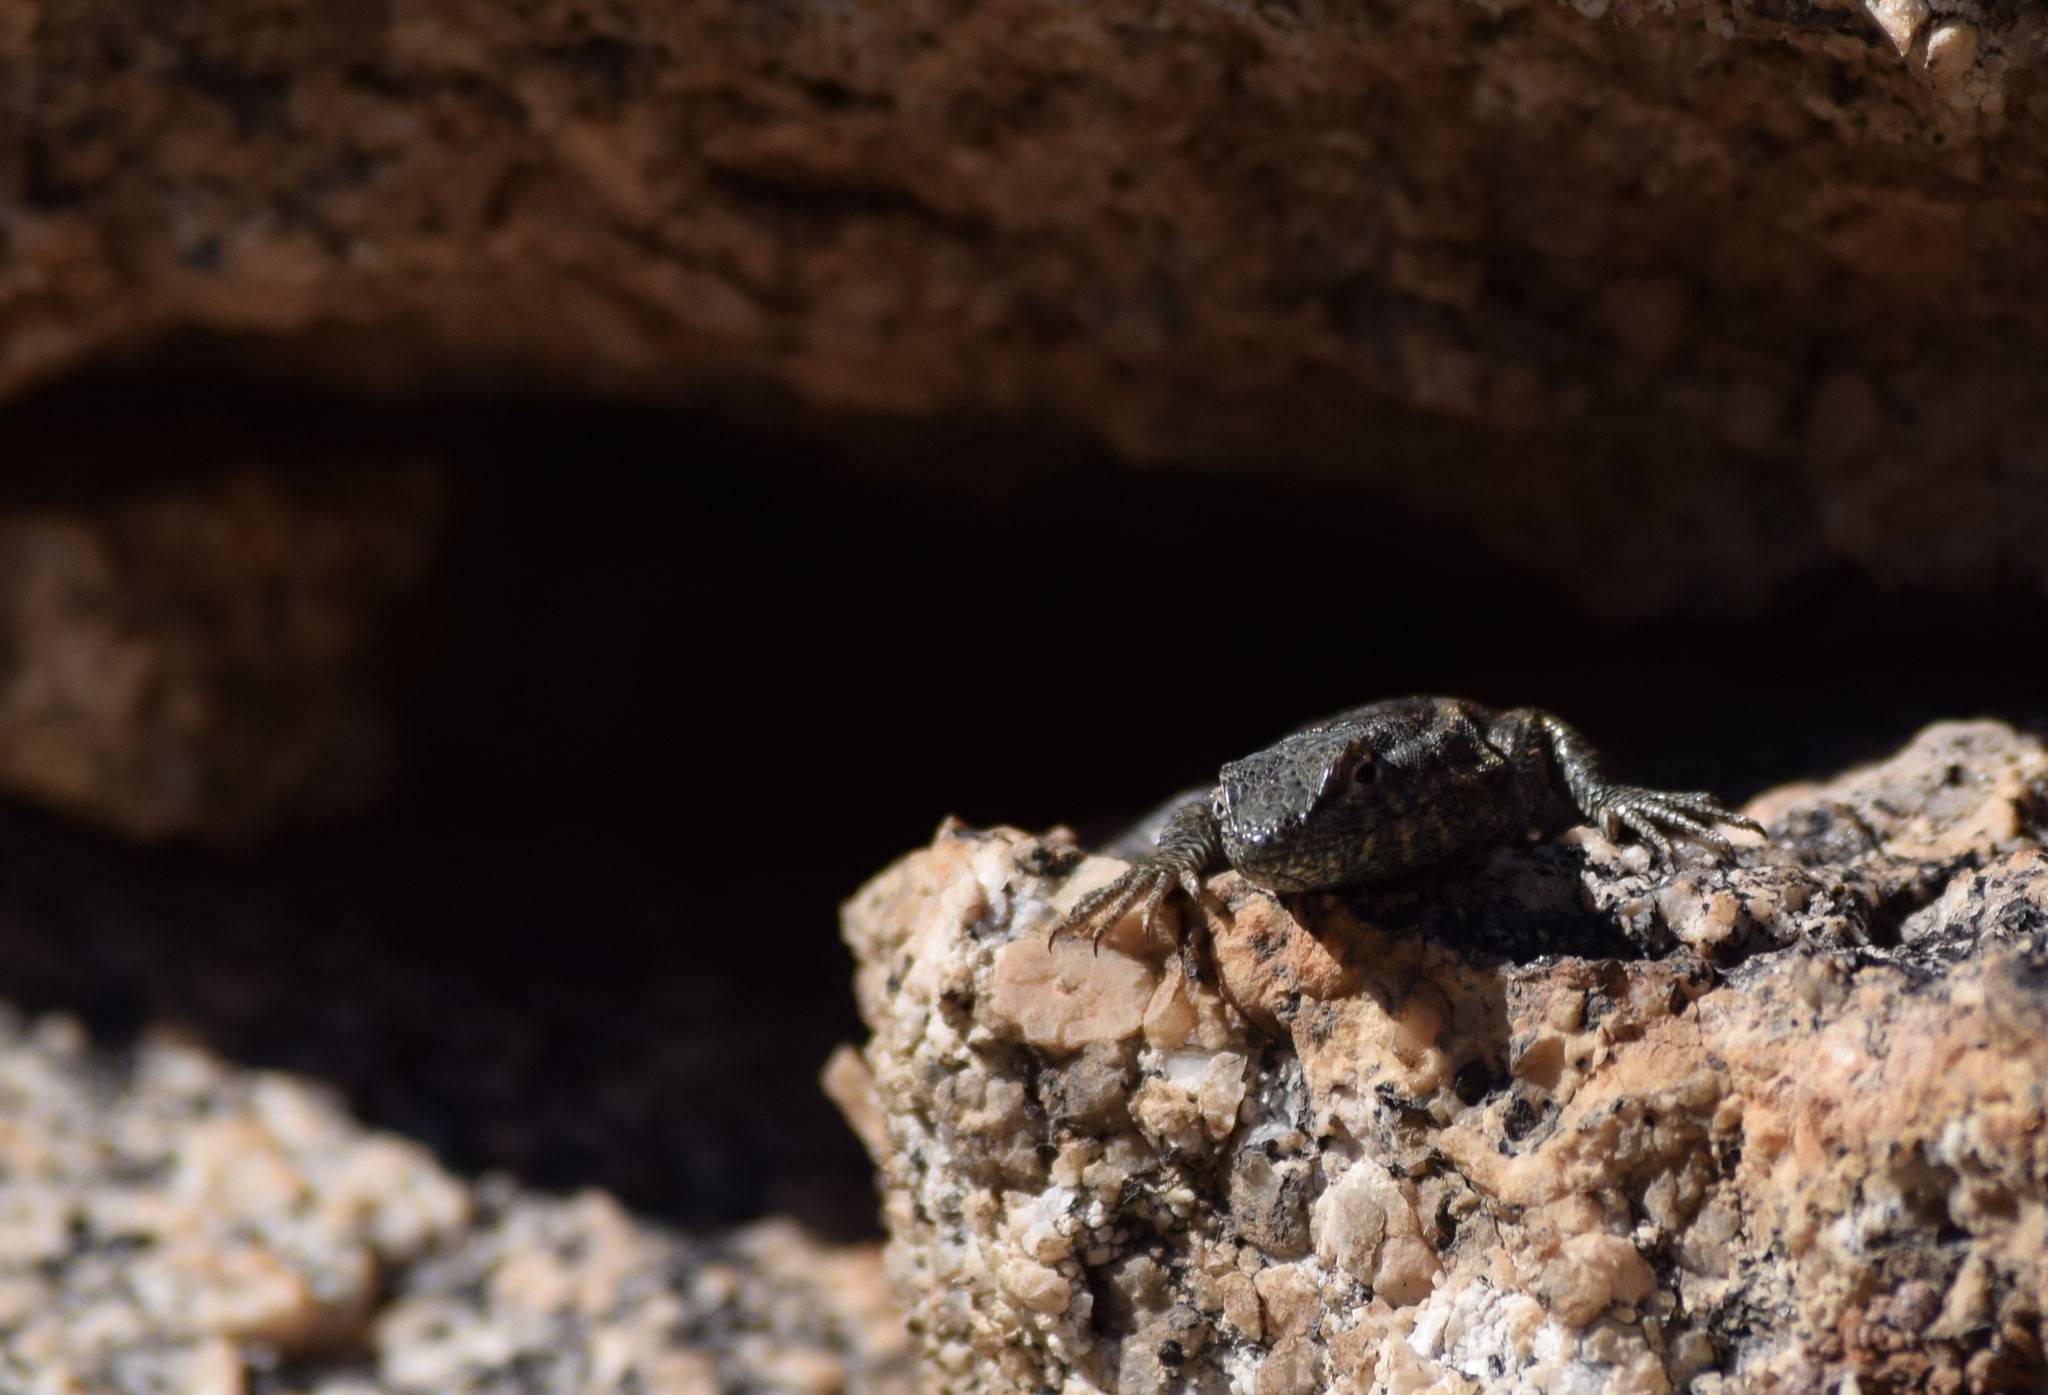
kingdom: Animalia
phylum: Chordata
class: Squamata
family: Phrynosomatidae
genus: Uta
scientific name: Uta stansburiana
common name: Side-blotched lizard
